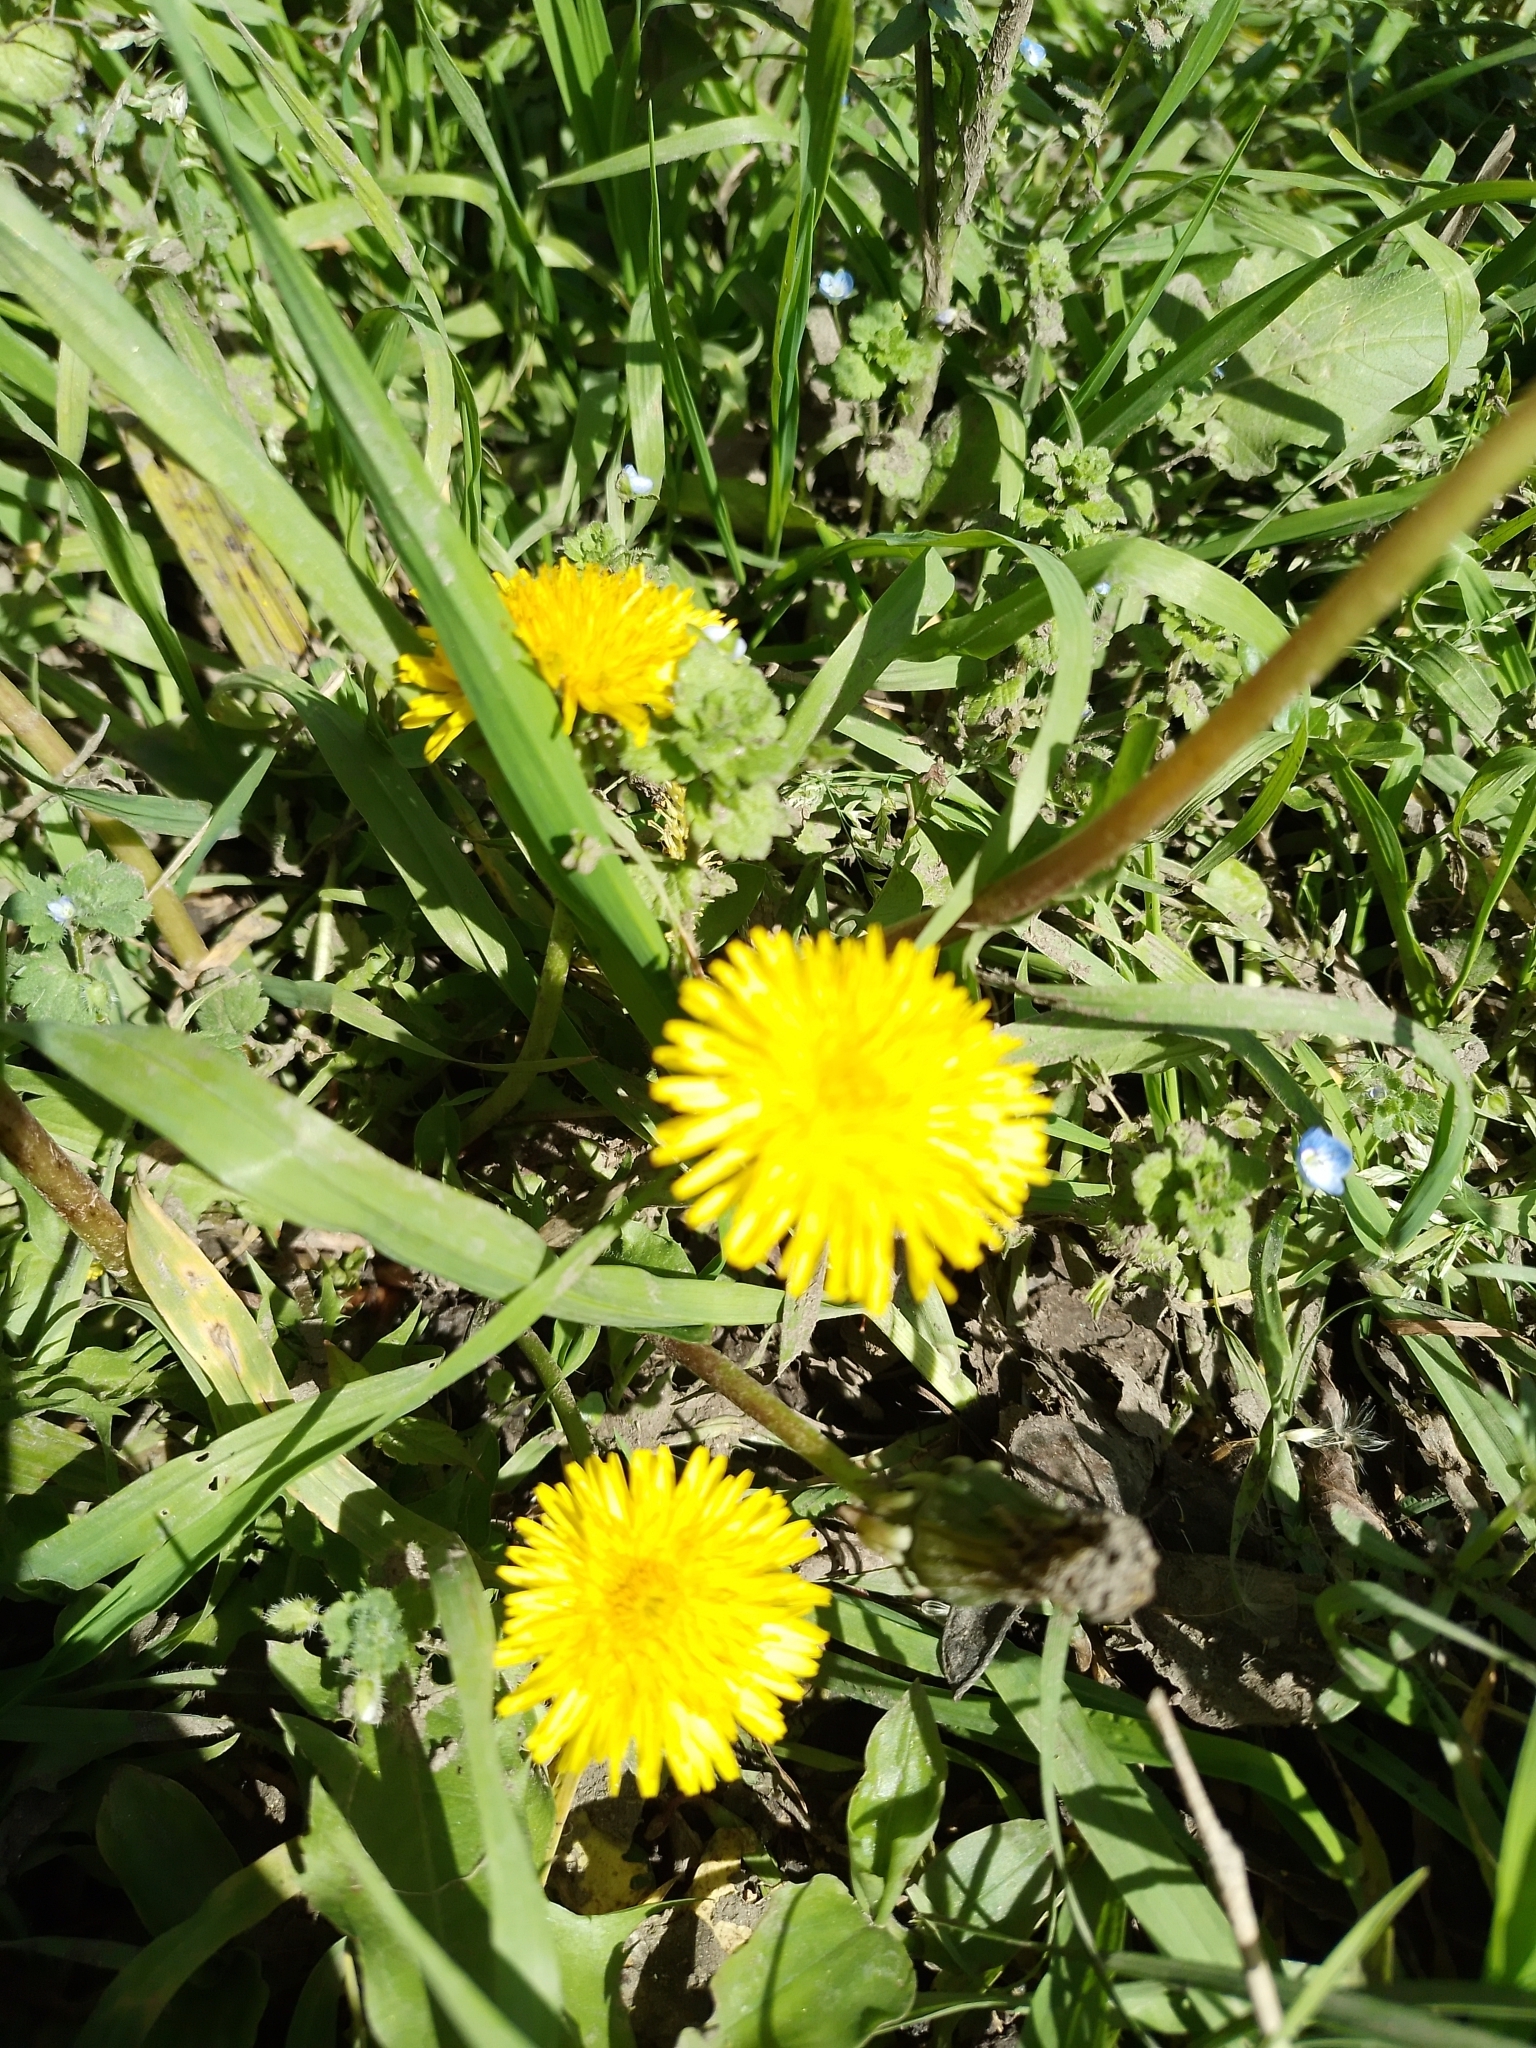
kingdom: Plantae
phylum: Tracheophyta
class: Magnoliopsida
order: Asterales
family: Asteraceae
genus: Taraxacum
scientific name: Taraxacum officinale
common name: Common dandelion
